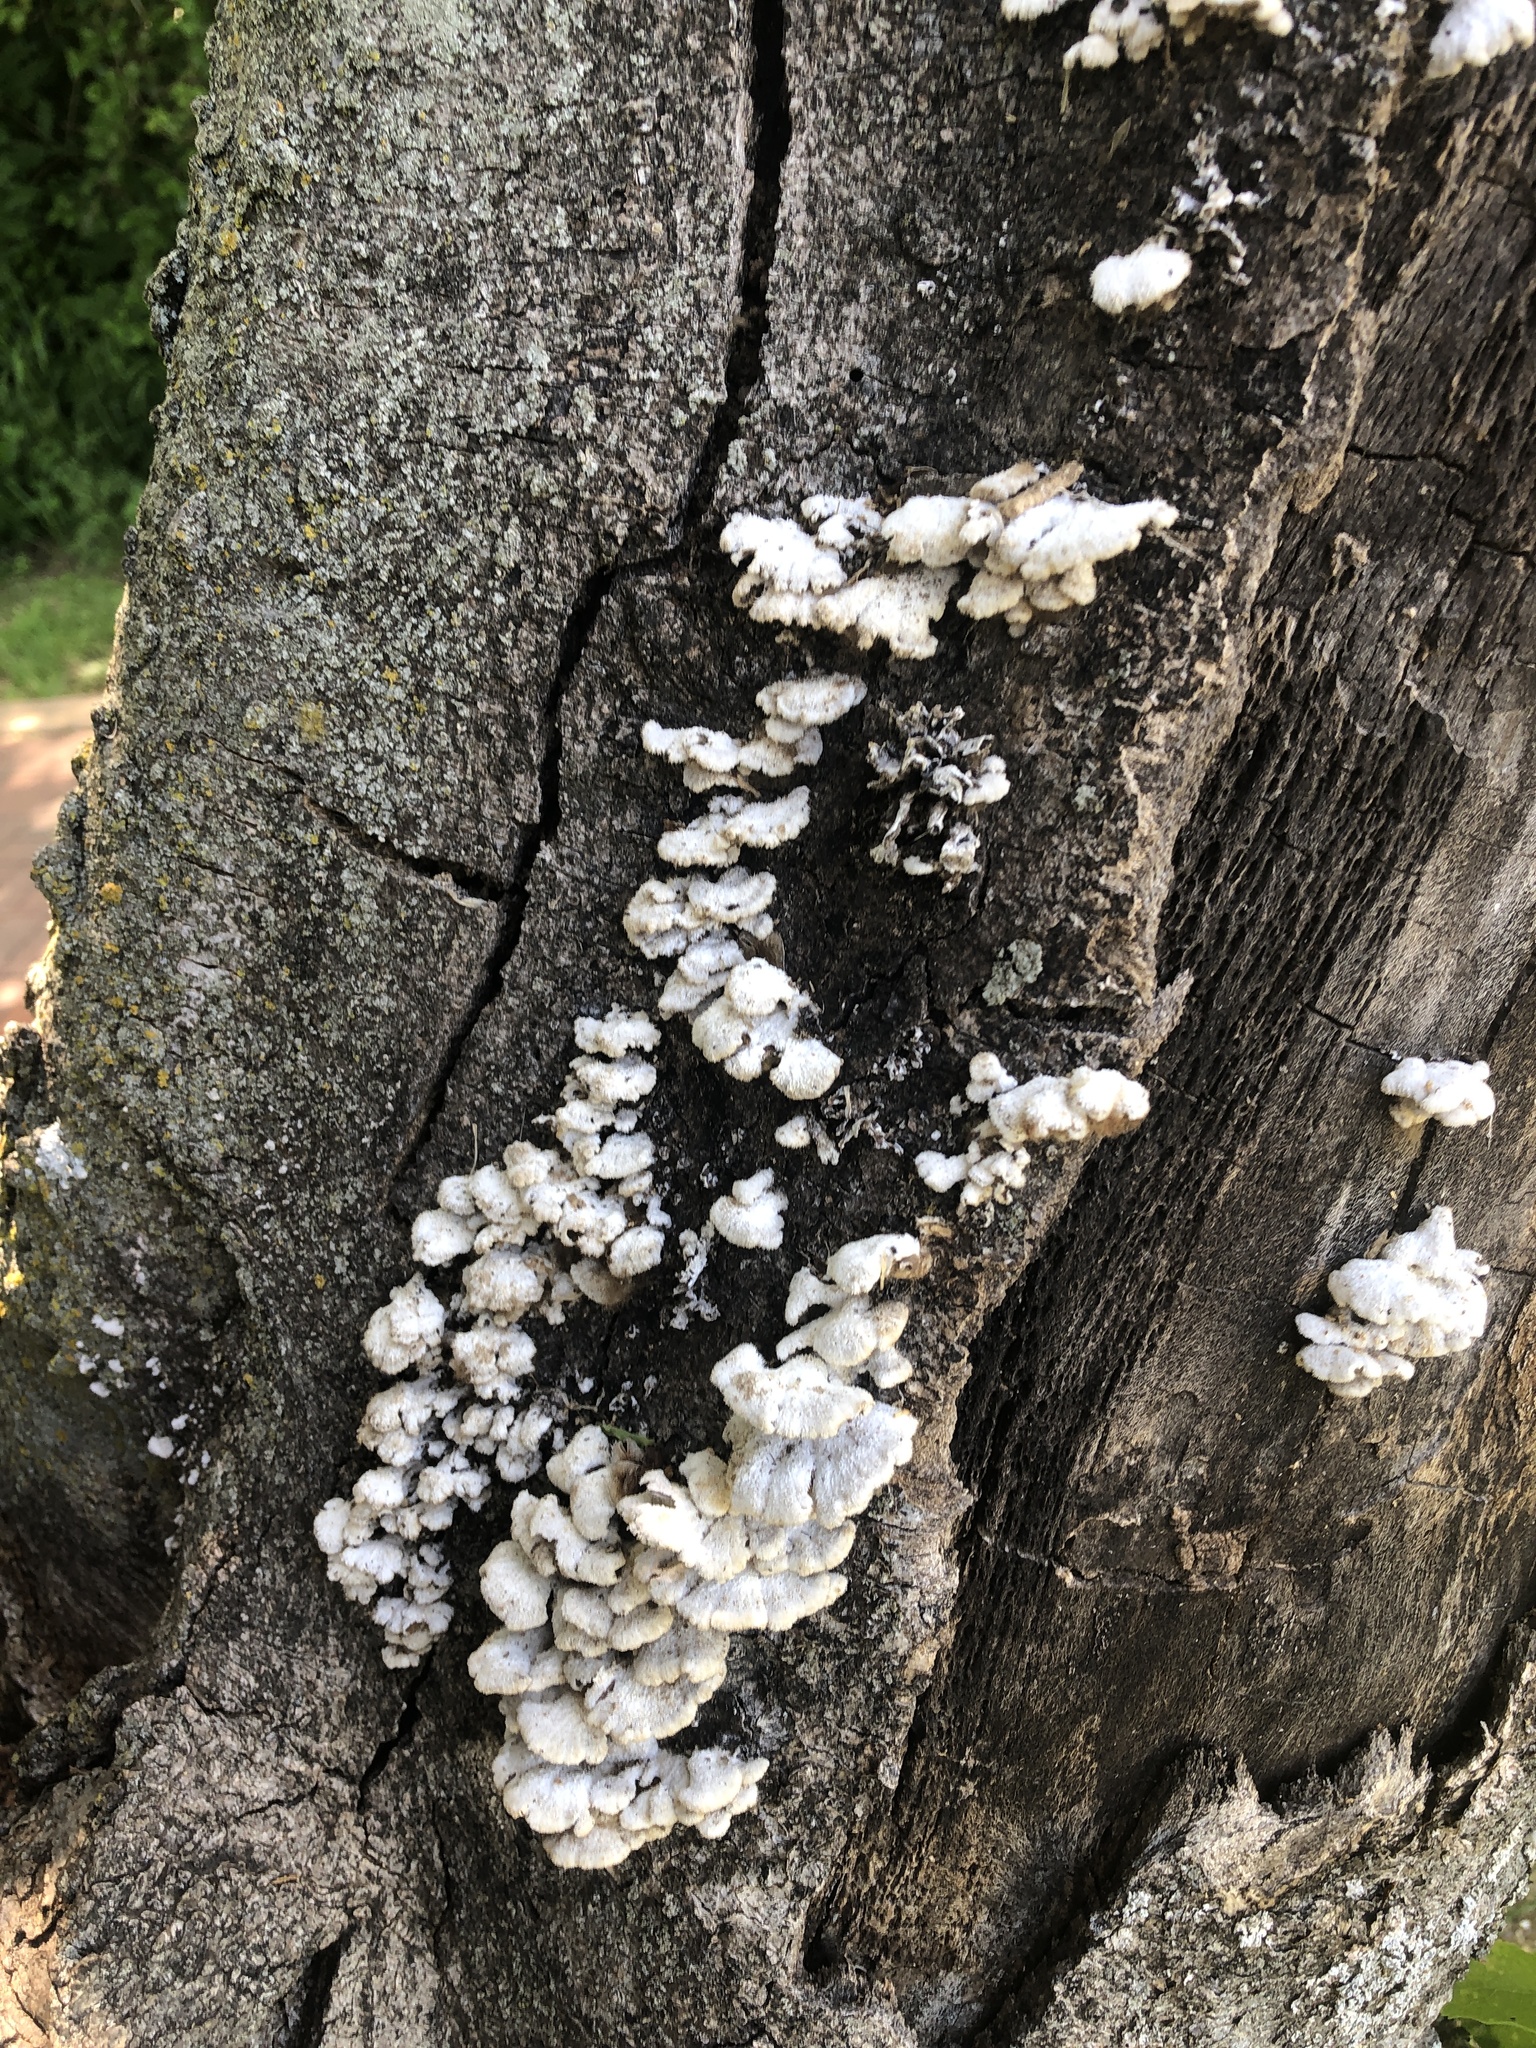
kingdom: Fungi
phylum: Basidiomycota
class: Agaricomycetes
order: Agaricales
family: Schizophyllaceae
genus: Schizophyllum
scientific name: Schizophyllum commune
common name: Common porecrust
